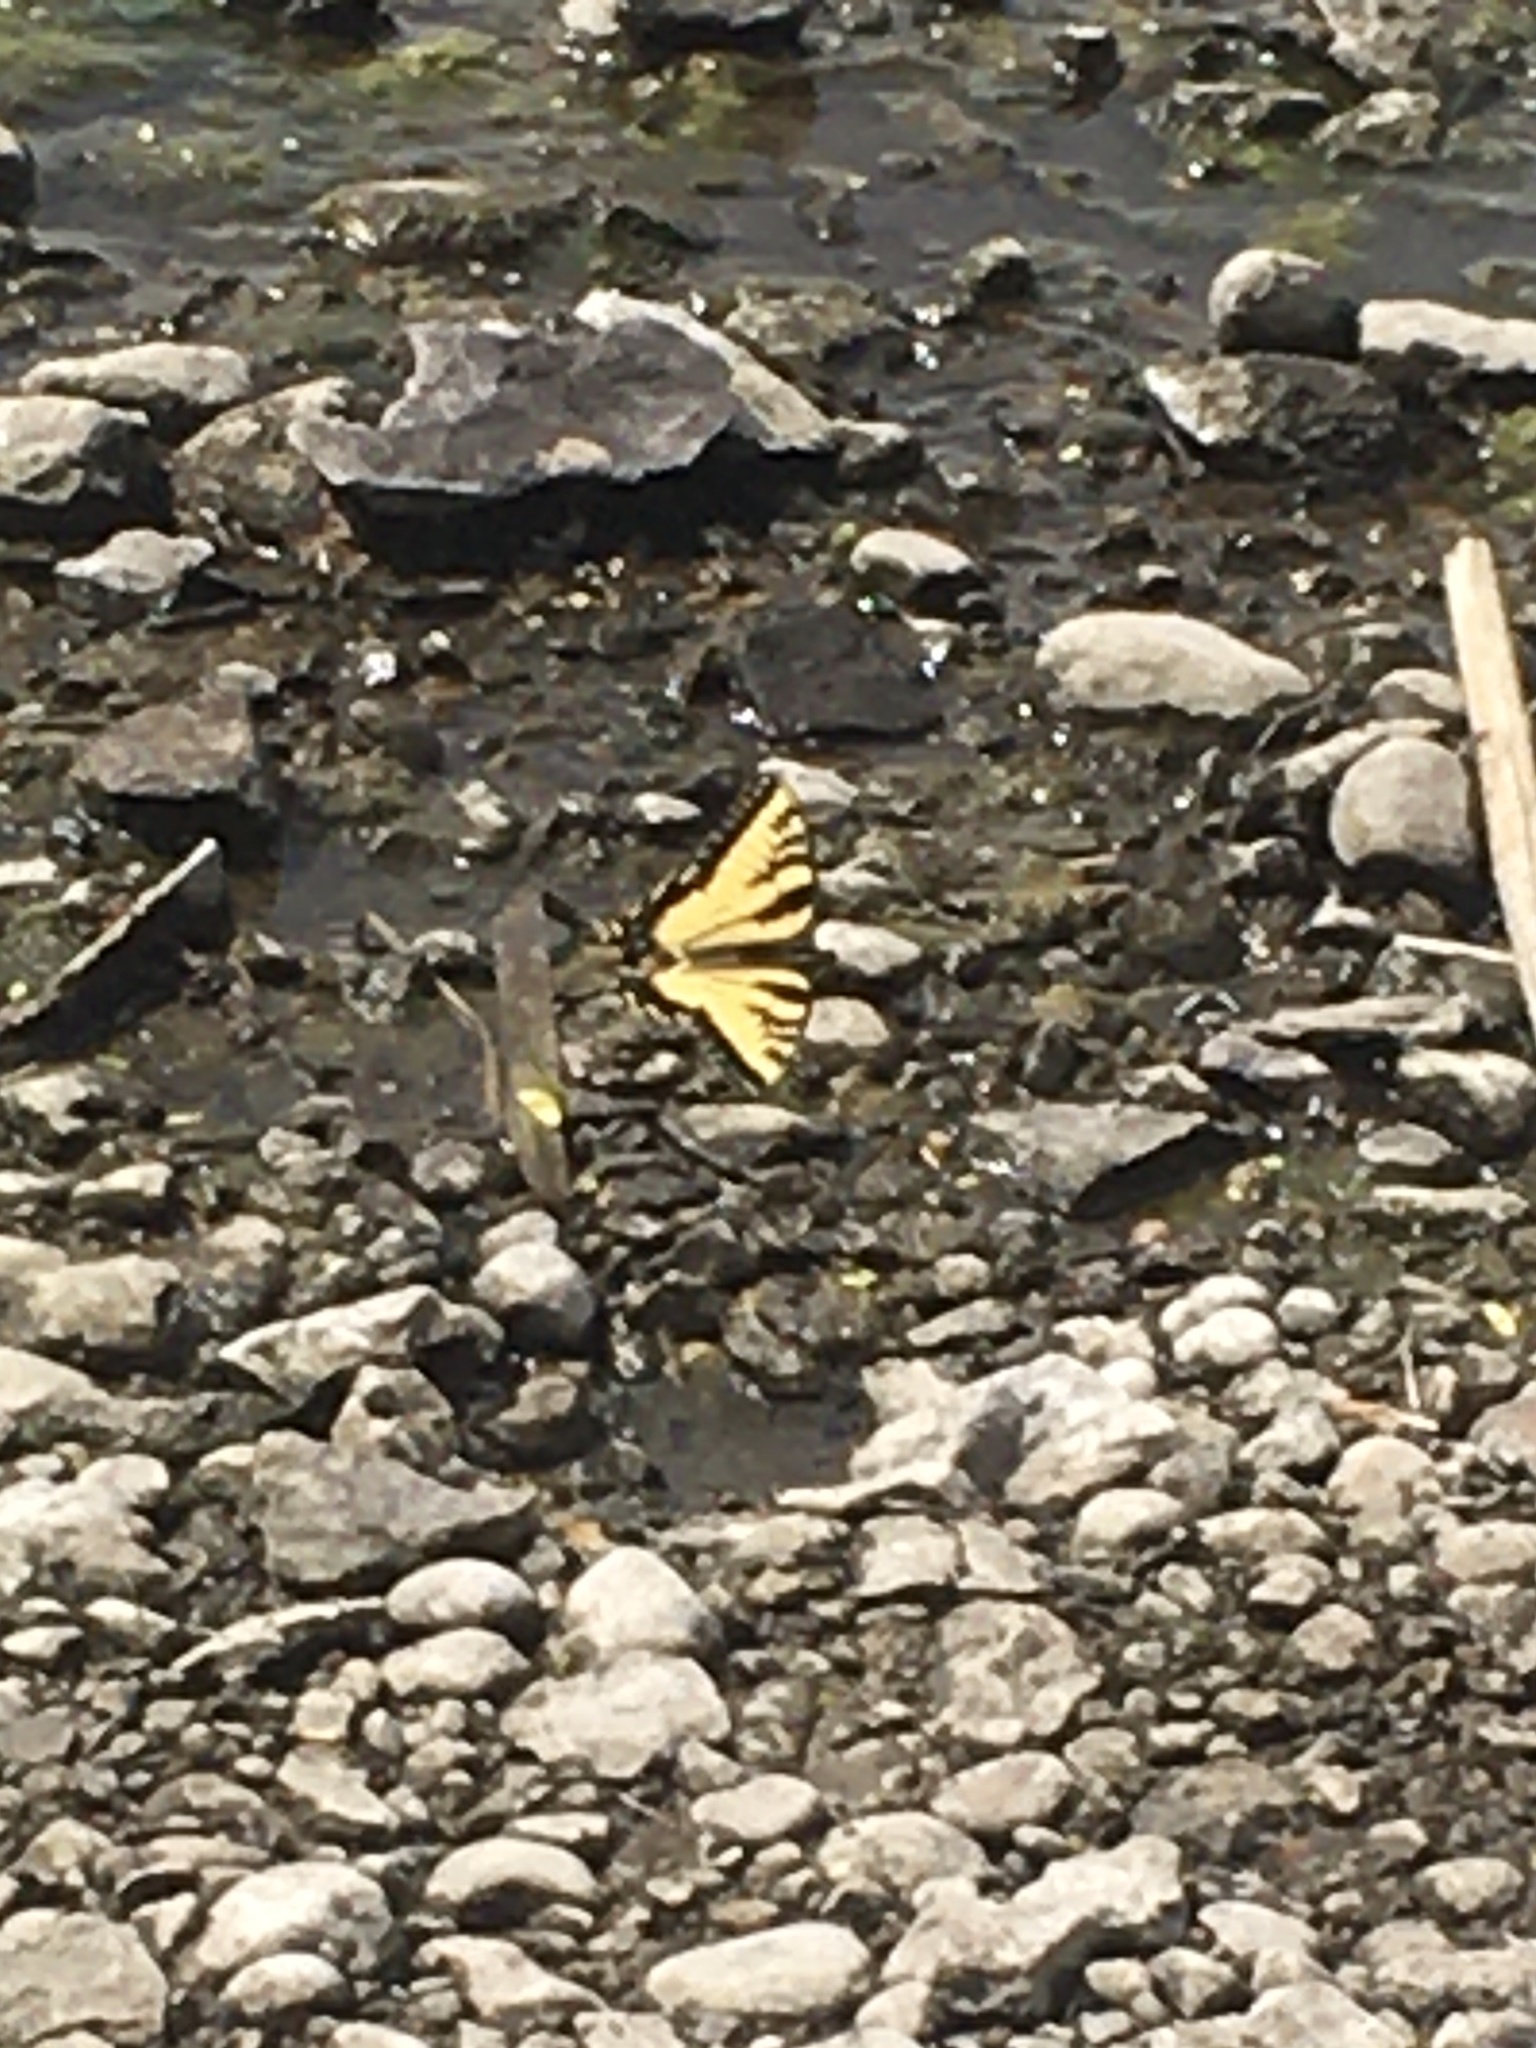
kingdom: Animalia
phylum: Arthropoda
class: Insecta
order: Lepidoptera
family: Papilionidae
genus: Papilio
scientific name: Papilio glaucus
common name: Tiger swallowtail
